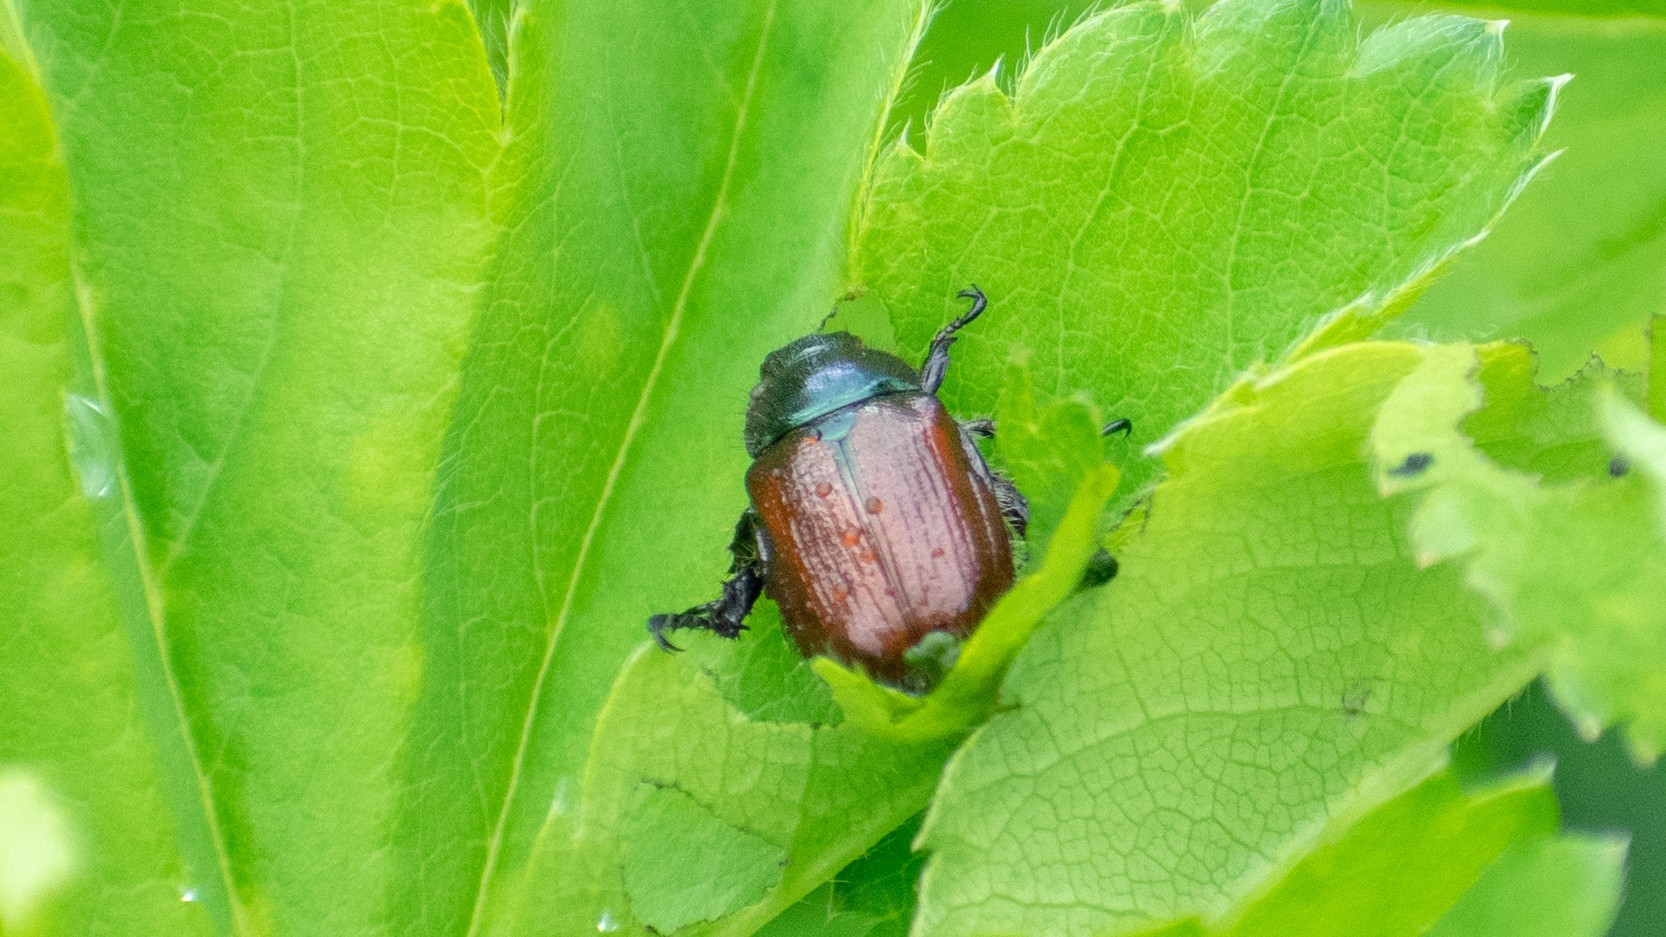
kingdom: Animalia
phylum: Arthropoda
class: Insecta
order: Coleoptera
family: Scarabaeidae
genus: Phyllopertha
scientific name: Phyllopertha horticola
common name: Garden chafer
